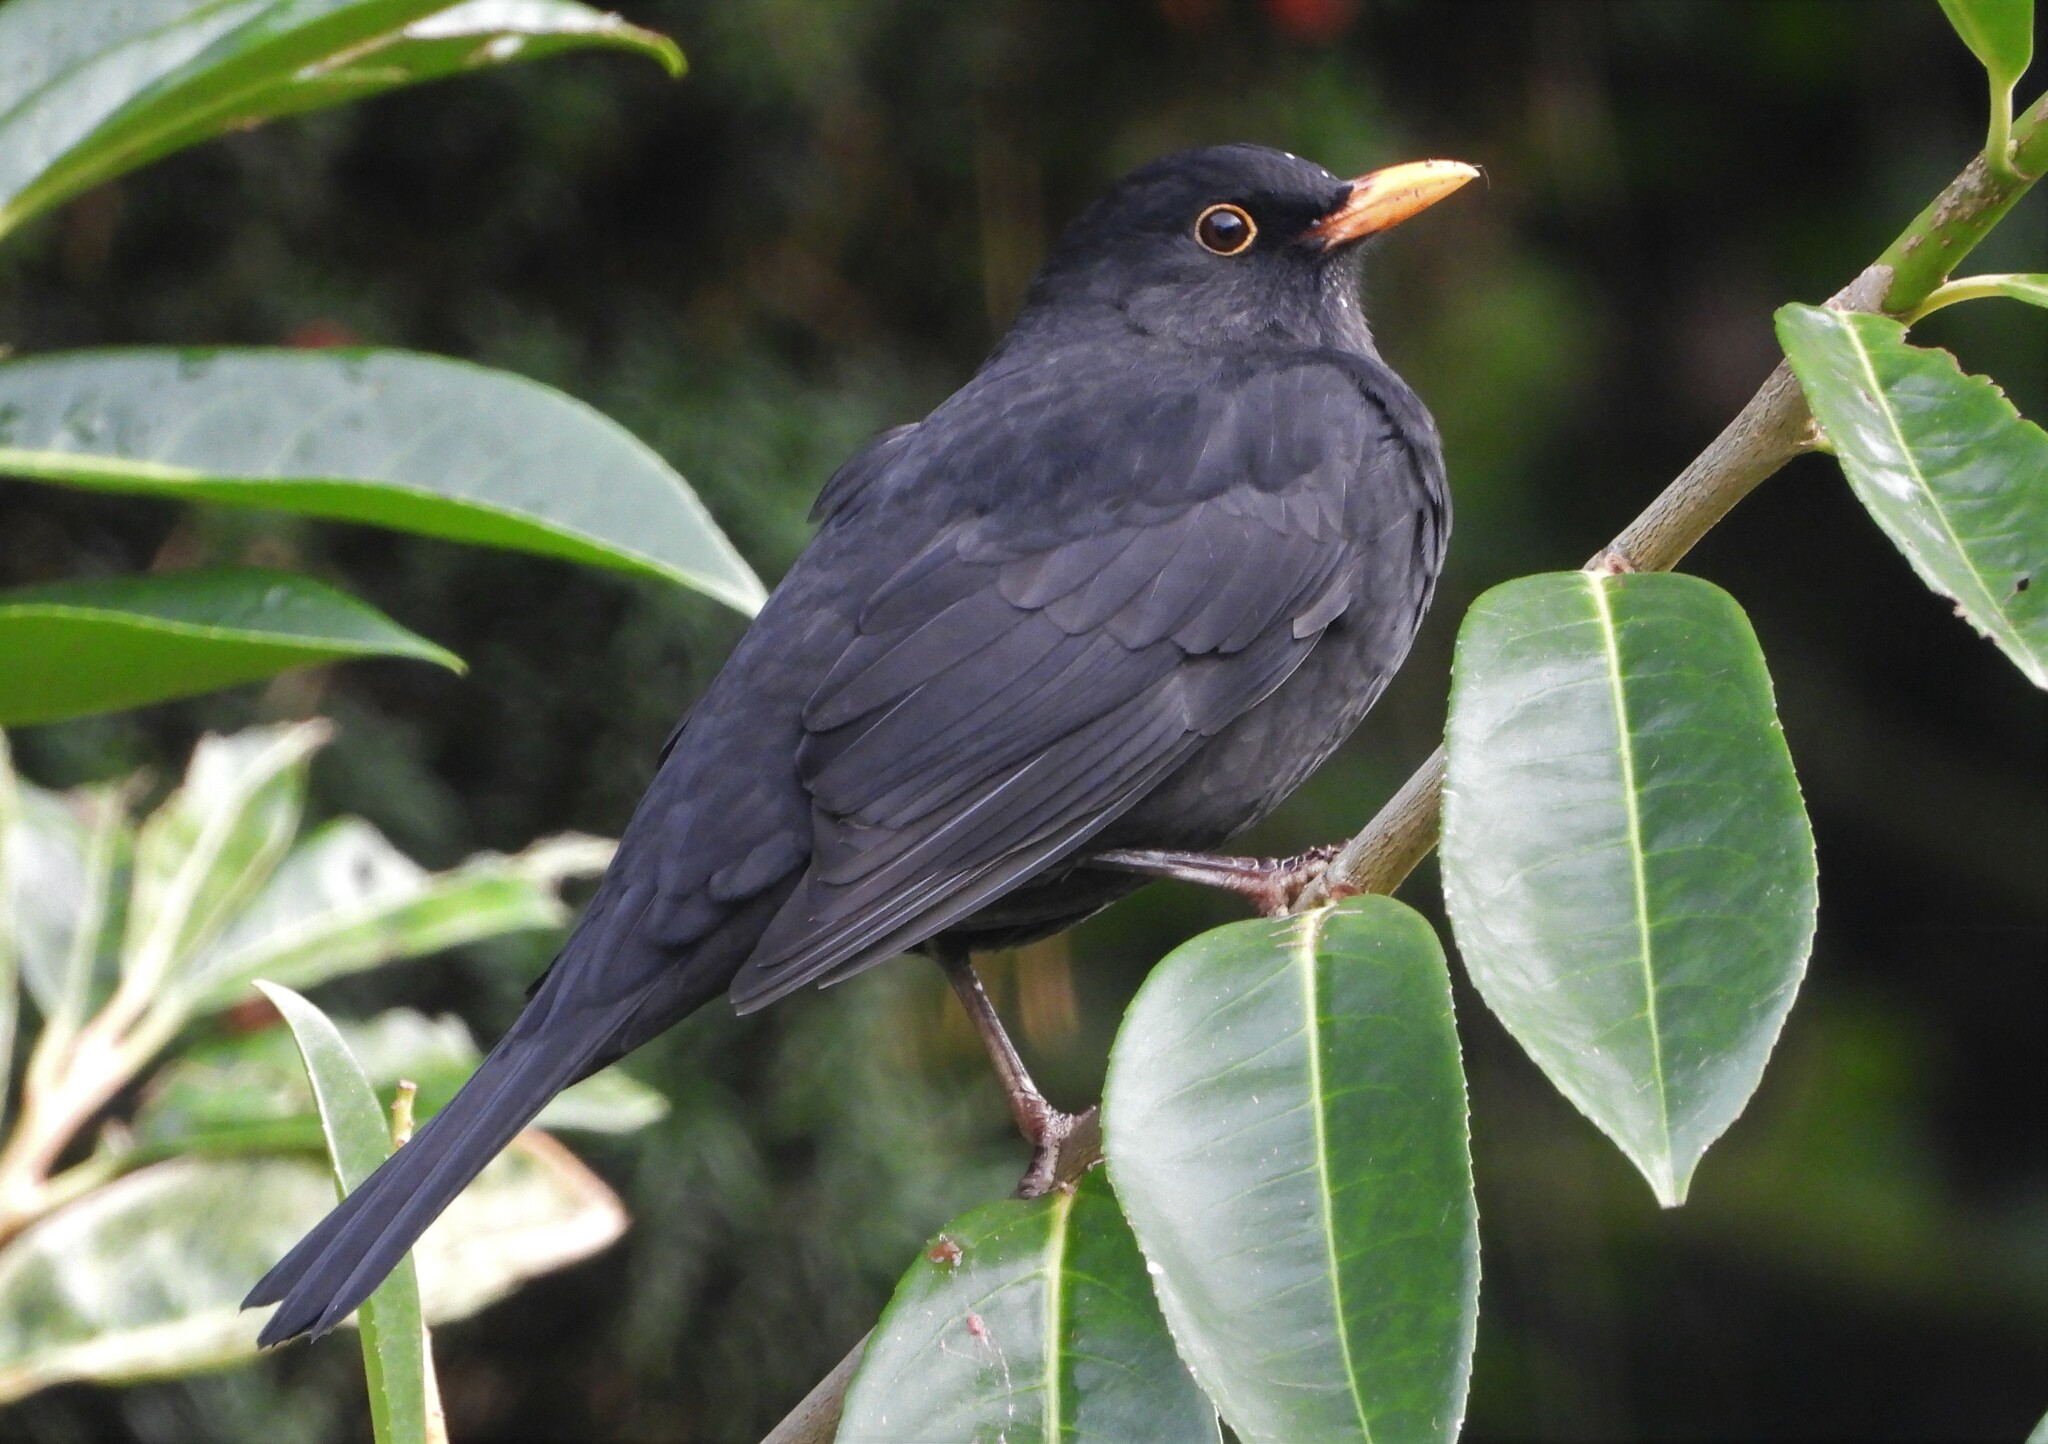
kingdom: Animalia
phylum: Chordata
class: Aves
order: Passeriformes
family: Turdidae
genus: Turdus
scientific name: Turdus merula
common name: Common blackbird
